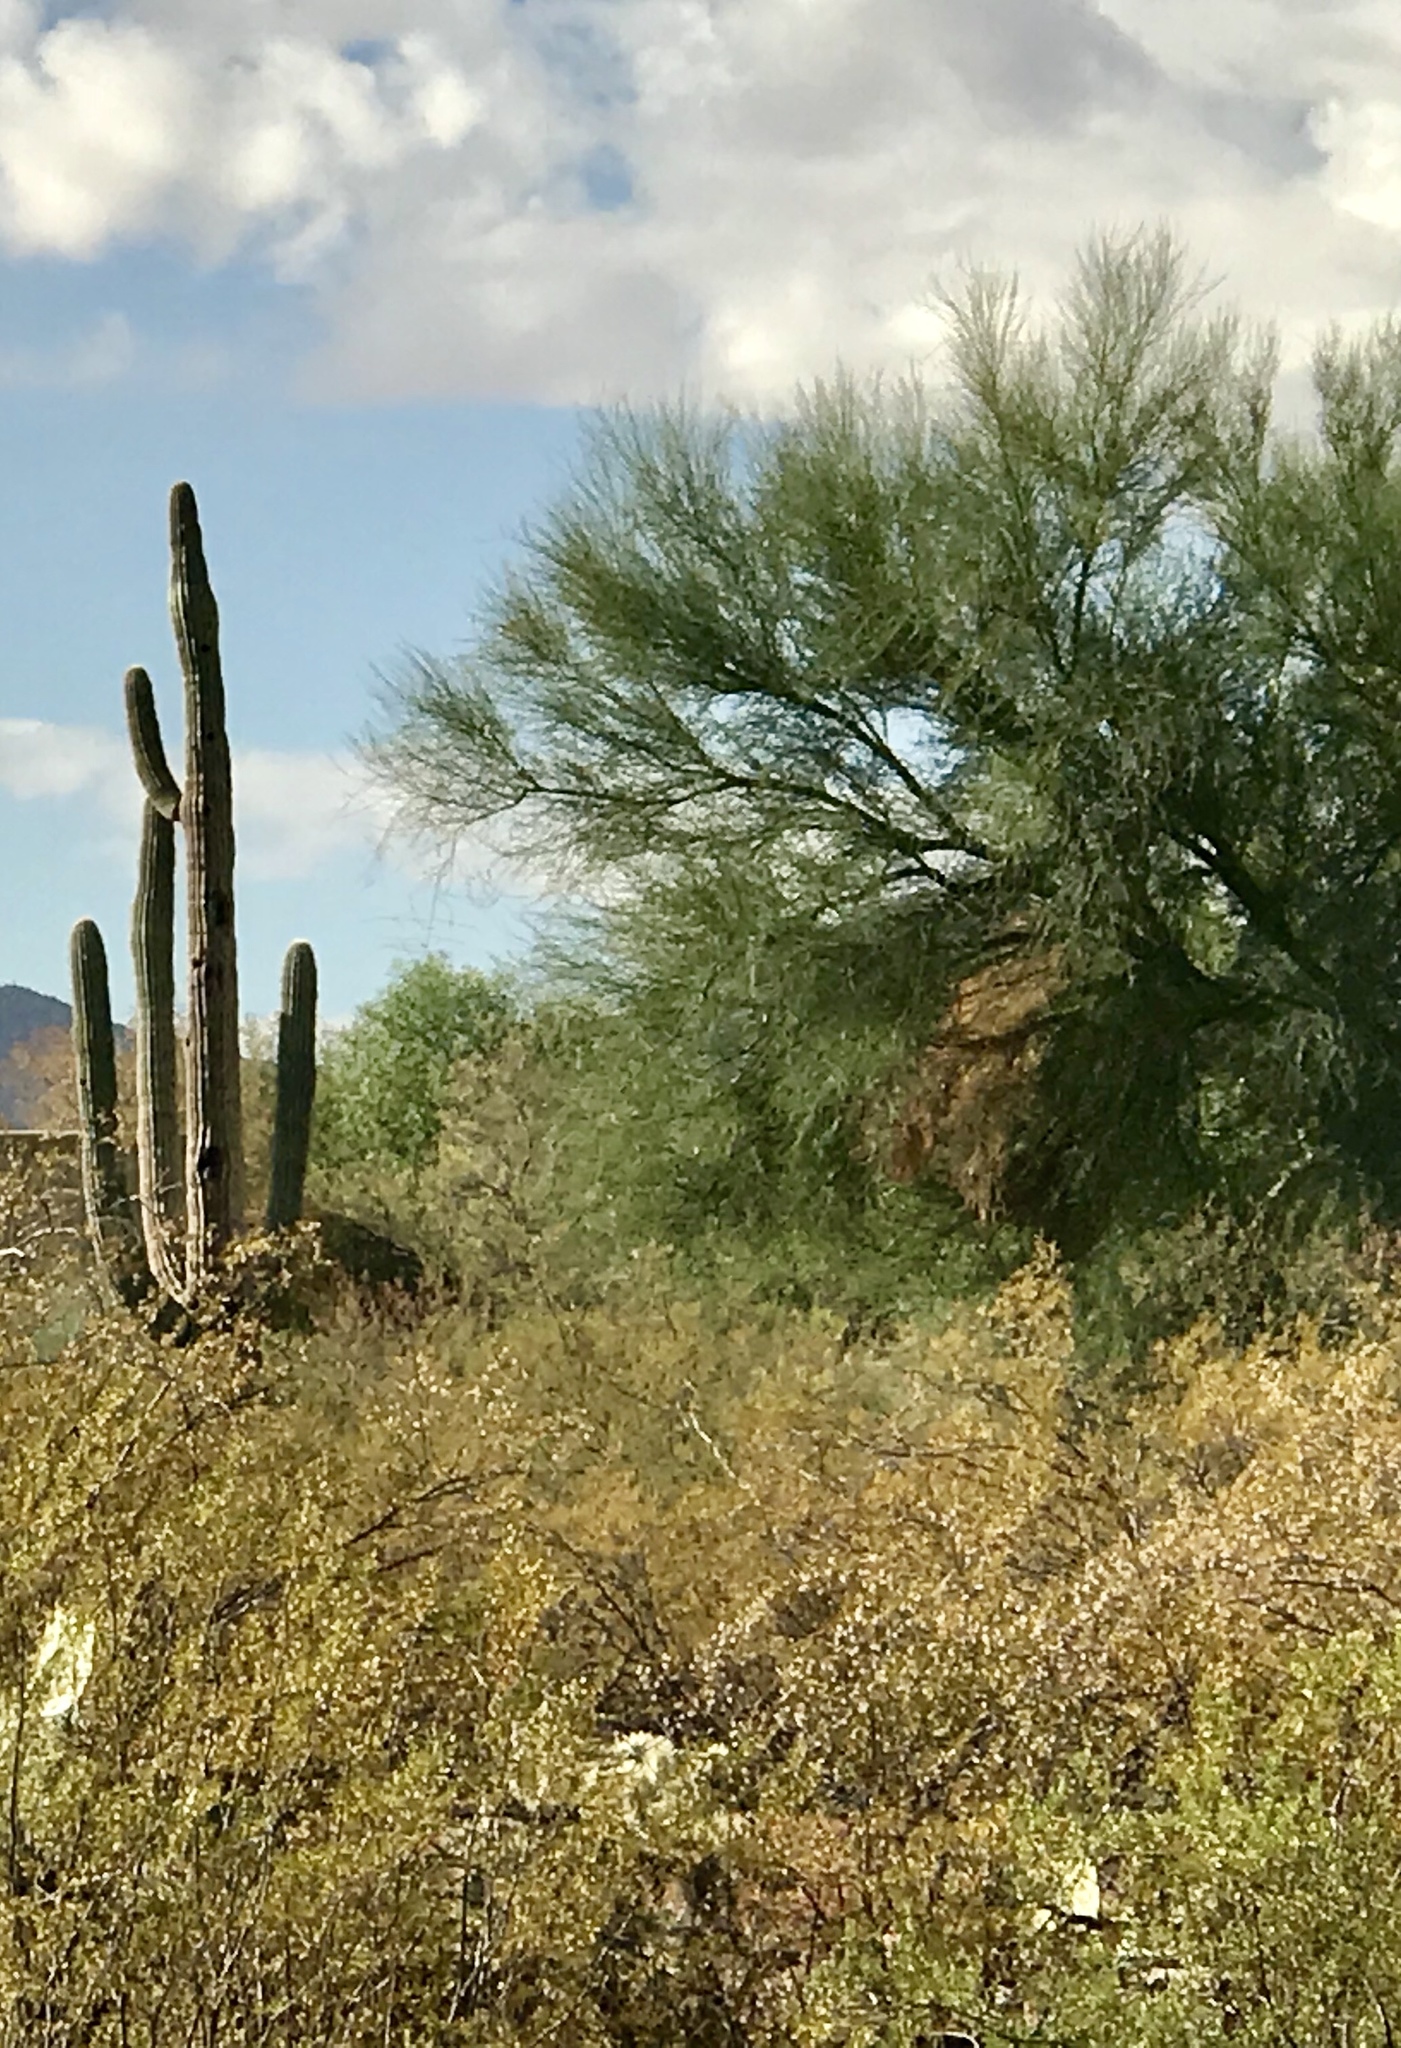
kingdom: Plantae
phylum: Tracheophyta
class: Magnoliopsida
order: Fabales
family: Fabaceae
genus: Parkinsonia
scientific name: Parkinsonia microphylla
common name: Yellow paloverde
